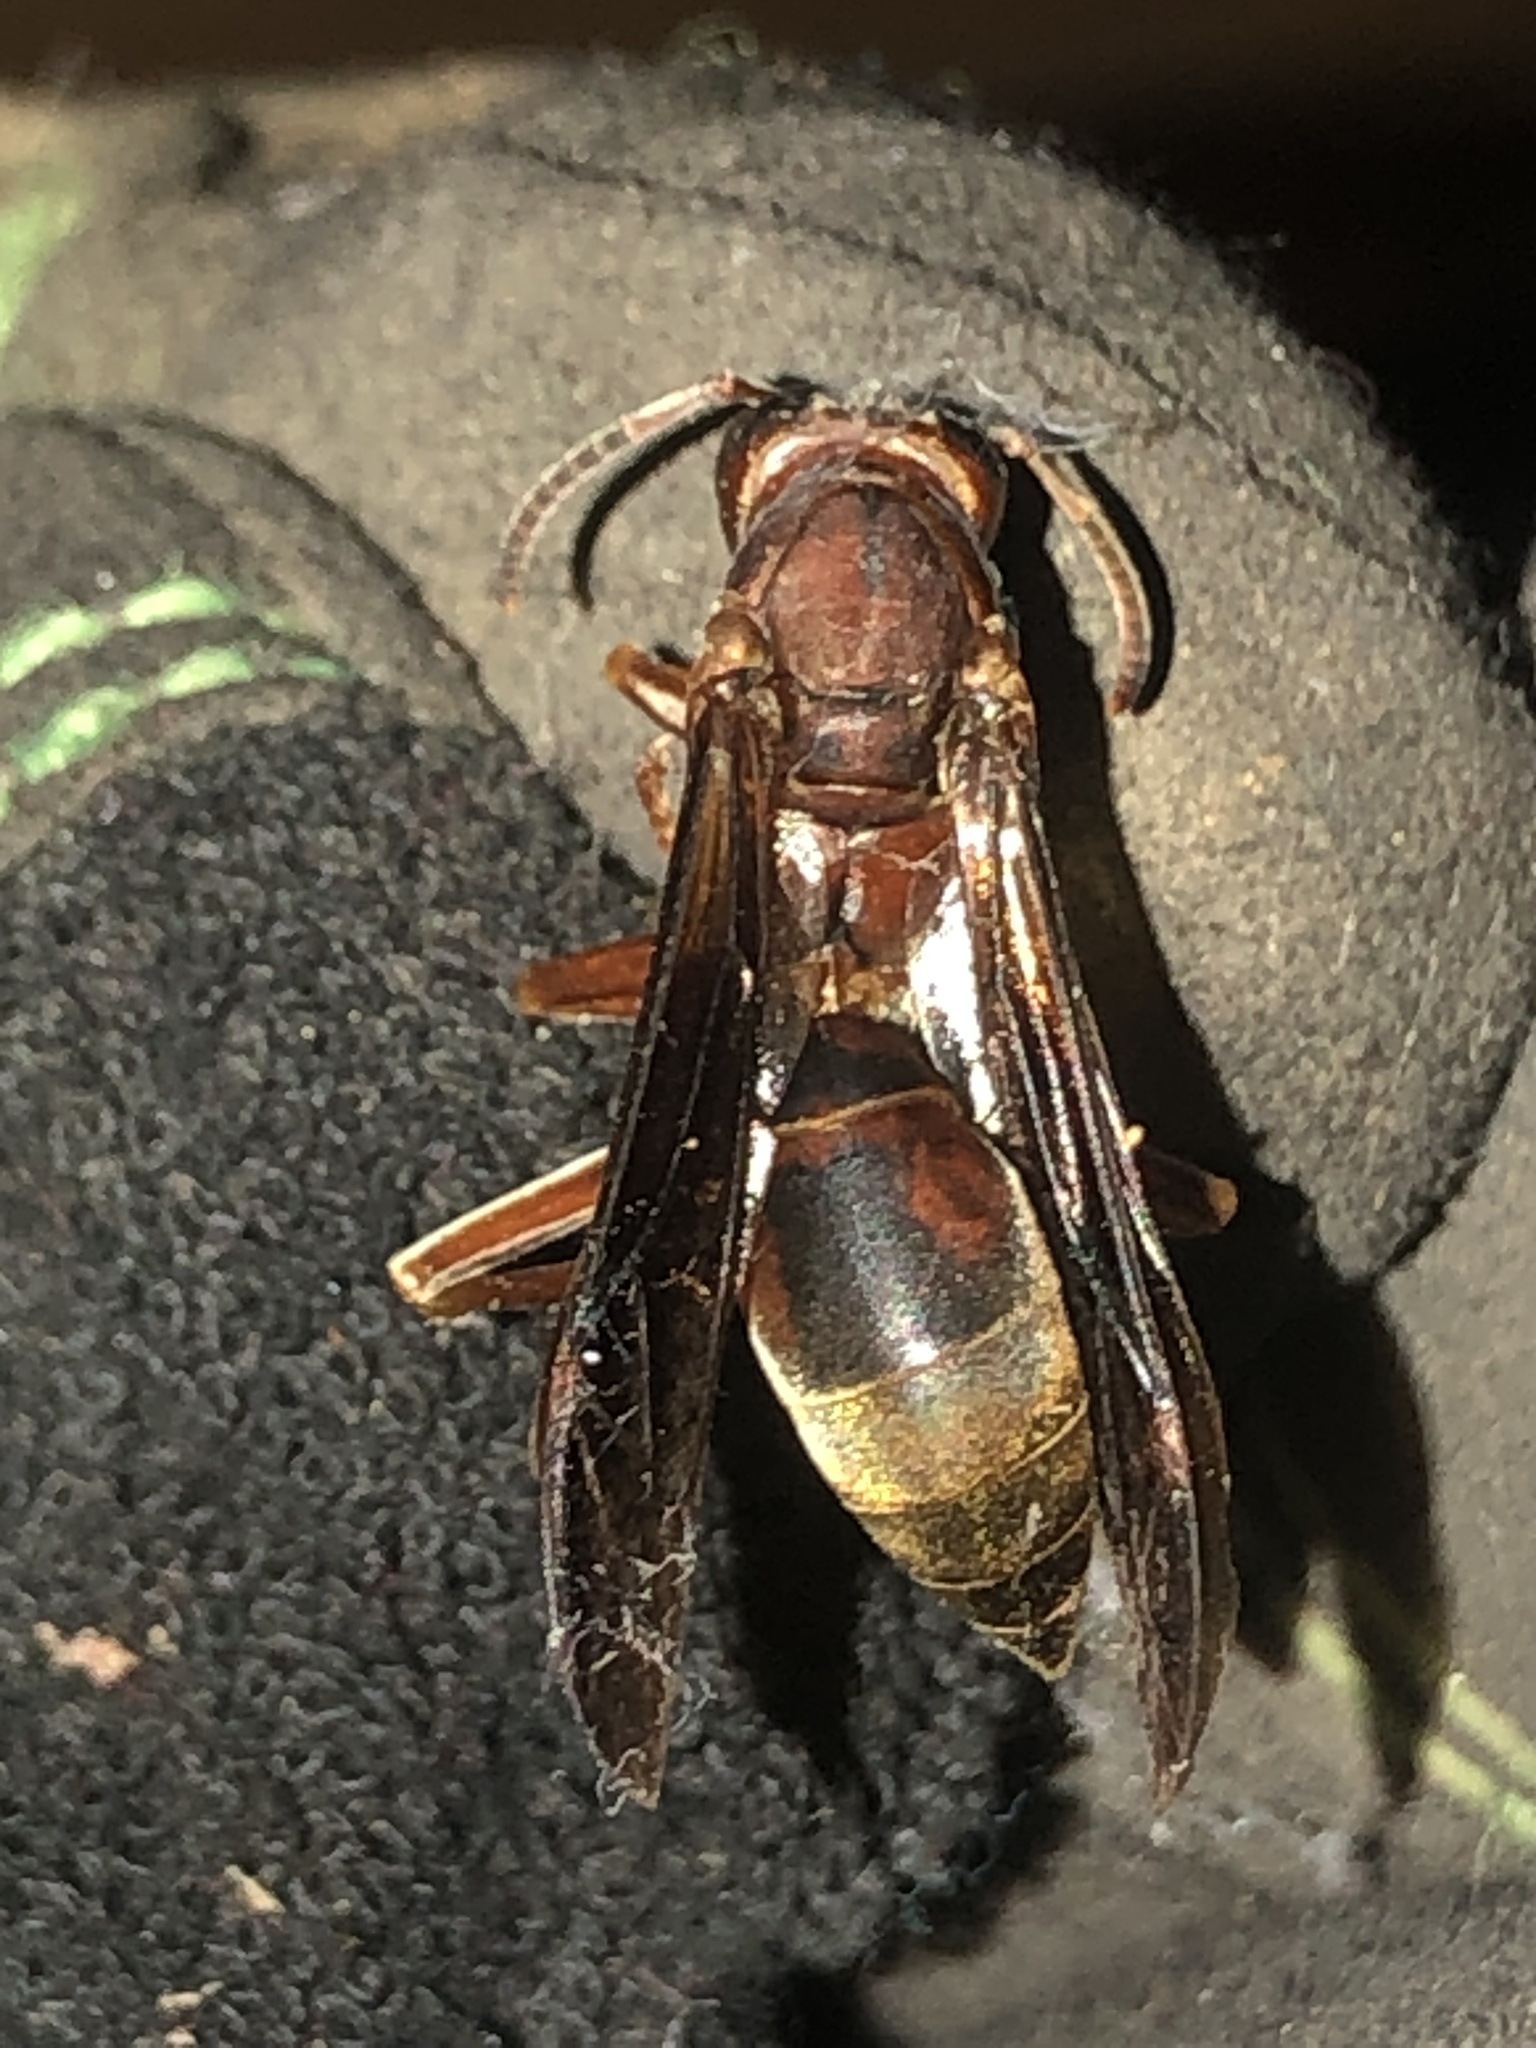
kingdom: Animalia
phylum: Arthropoda
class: Insecta
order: Hymenoptera
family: Eumenidae
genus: Polistes
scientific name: Polistes metricus
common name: Metric paper wasp
